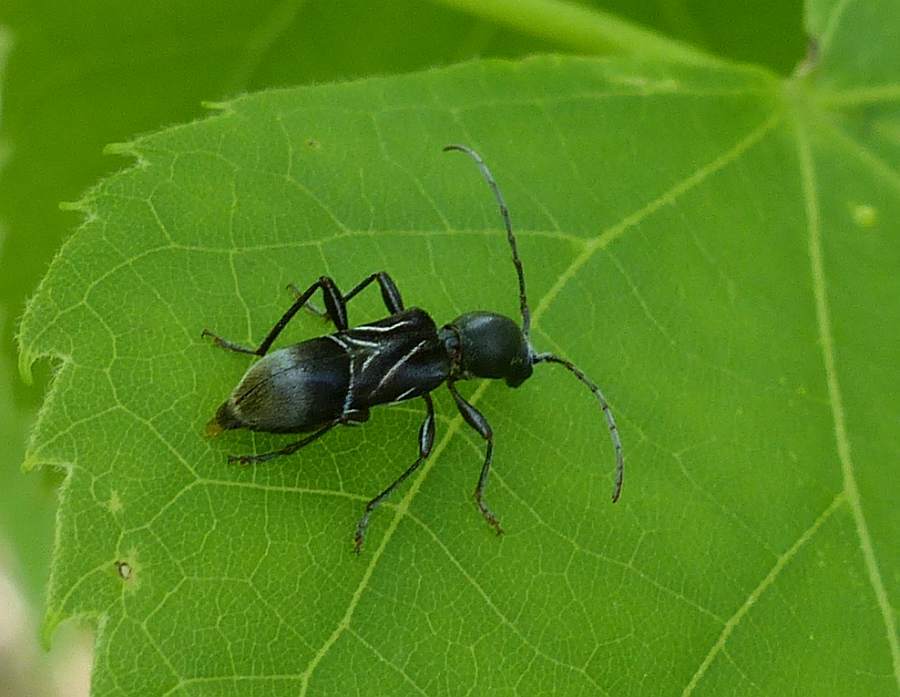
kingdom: Animalia
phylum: Arthropoda
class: Insecta
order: Coleoptera
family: Cerambycidae
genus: Cyrtophorus
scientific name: Cyrtophorus verrucosus
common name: Ant-like longhorn beetle
